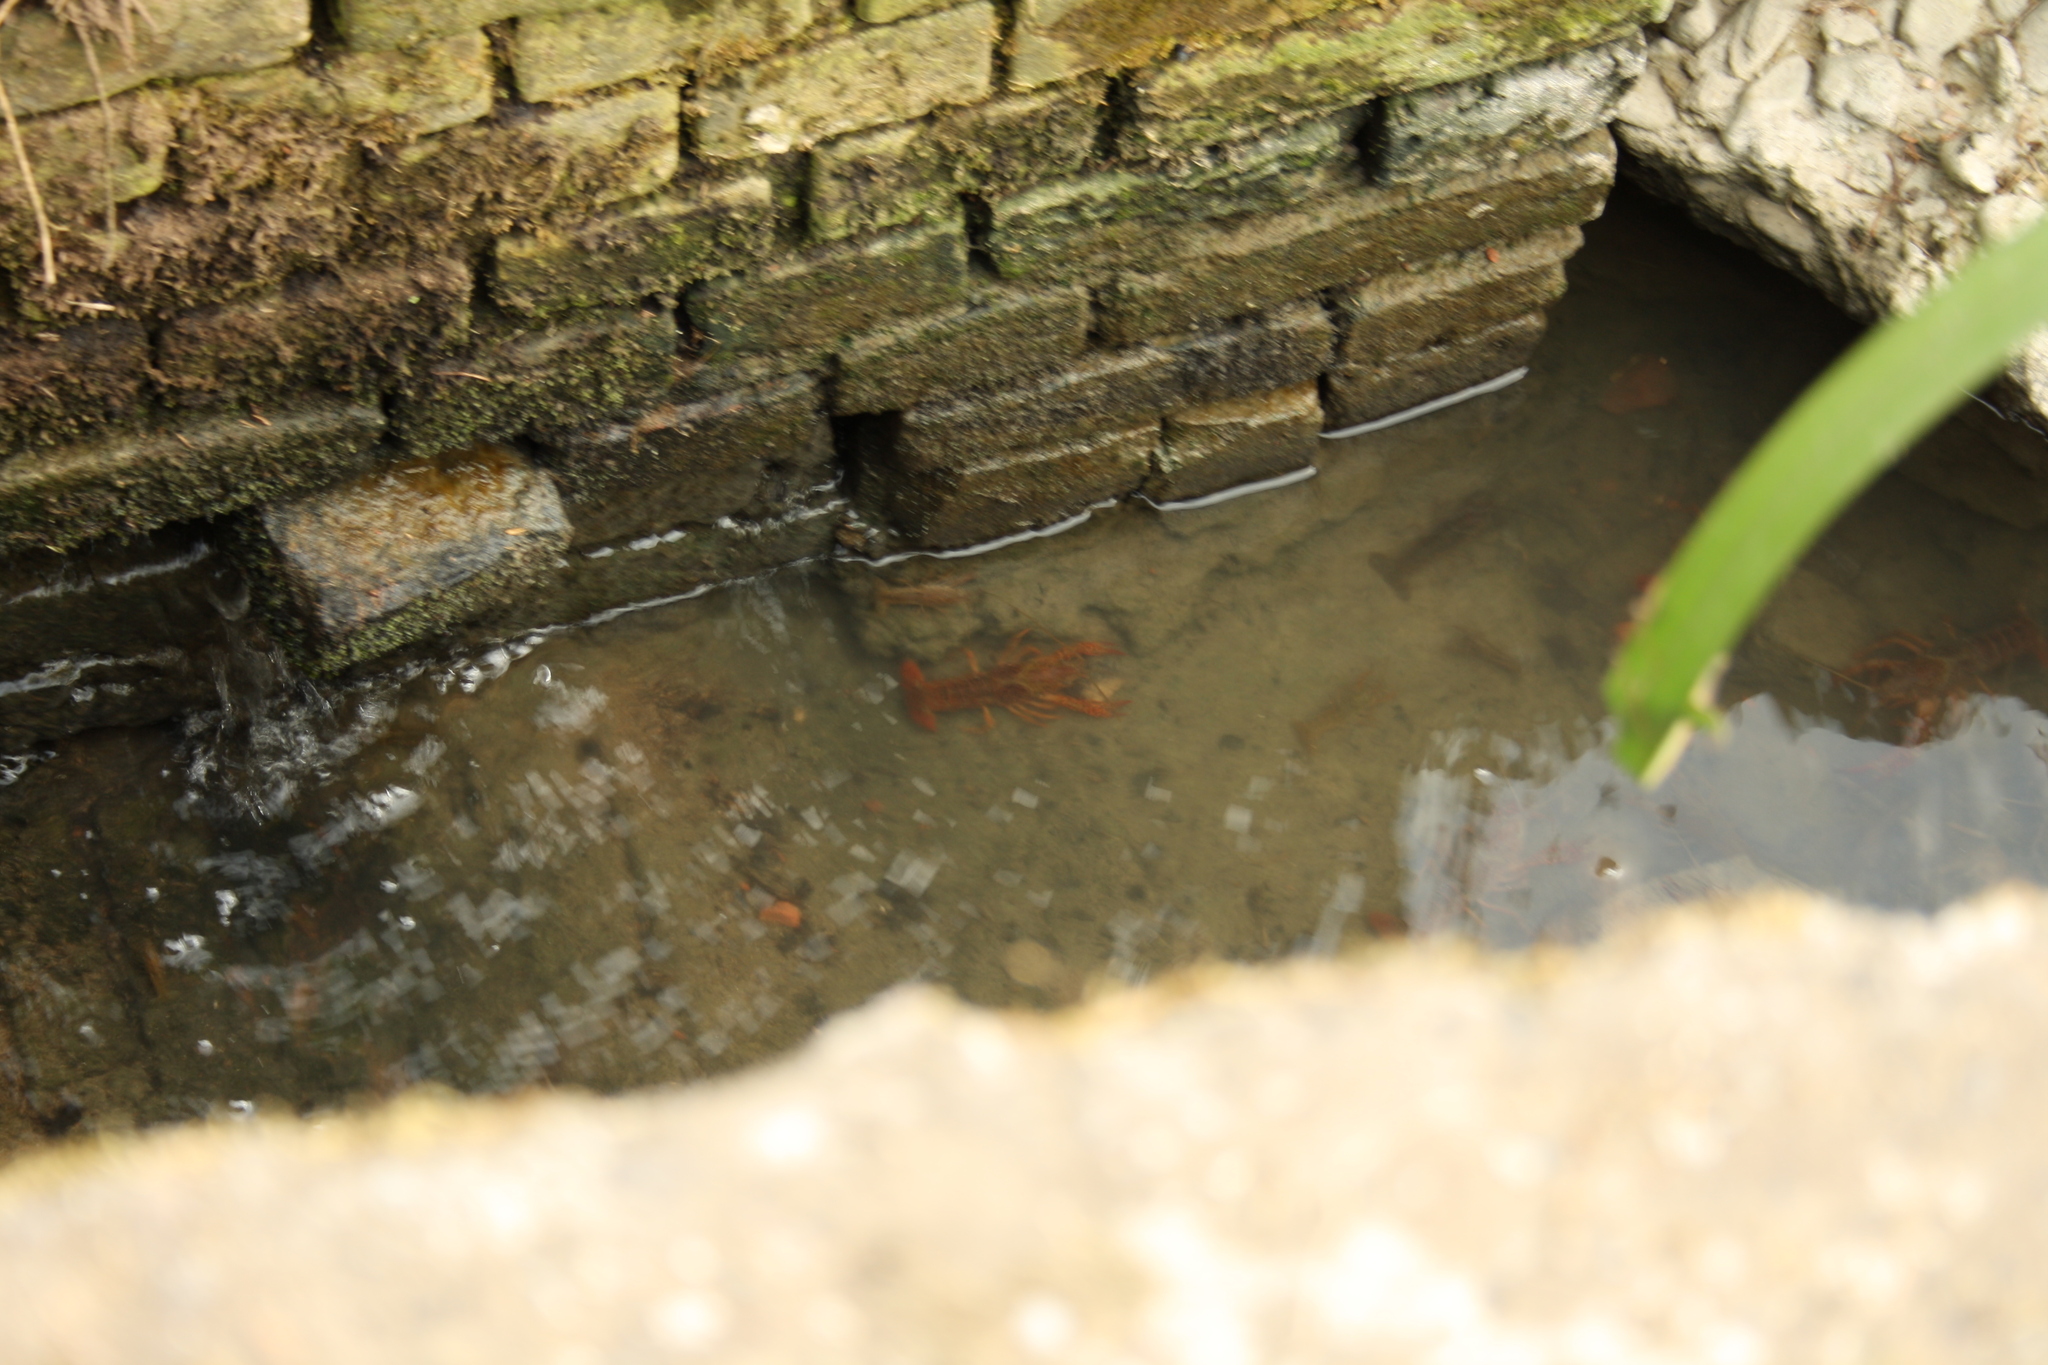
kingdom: Animalia
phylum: Arthropoda
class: Malacostraca
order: Decapoda
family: Cambaridae
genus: Procambarus
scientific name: Procambarus clarkii
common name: Red swamp crayfish
